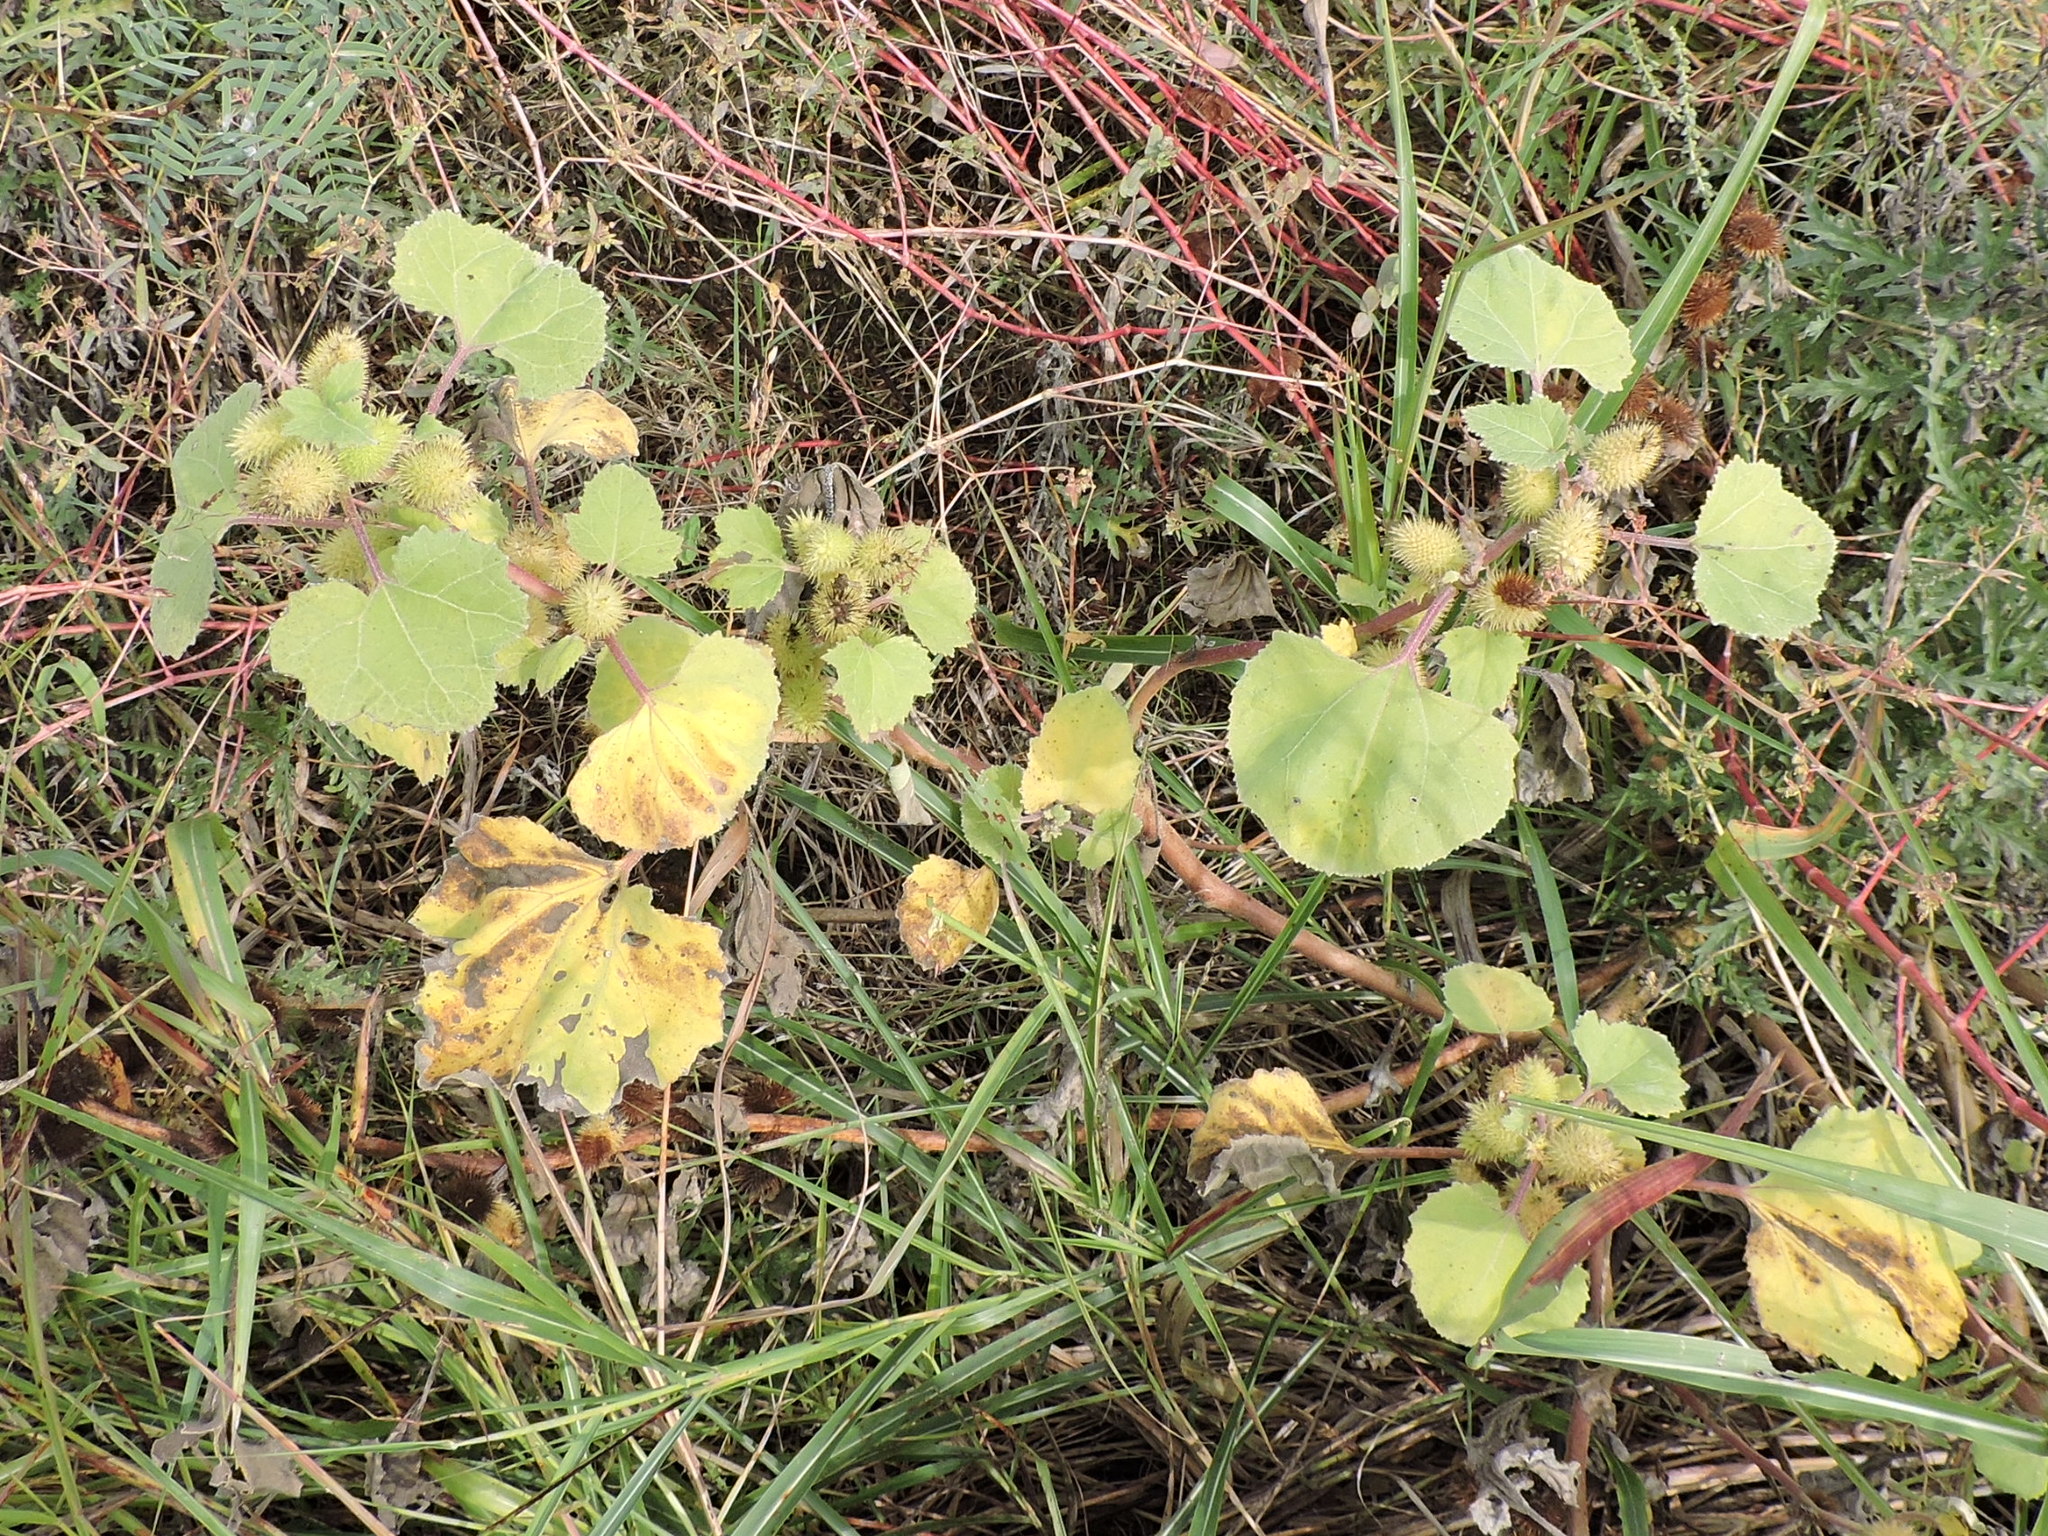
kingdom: Plantae
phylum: Tracheophyta
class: Magnoliopsida
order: Asterales
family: Asteraceae
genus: Xanthium
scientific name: Xanthium strumarium
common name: Rough cocklebur
